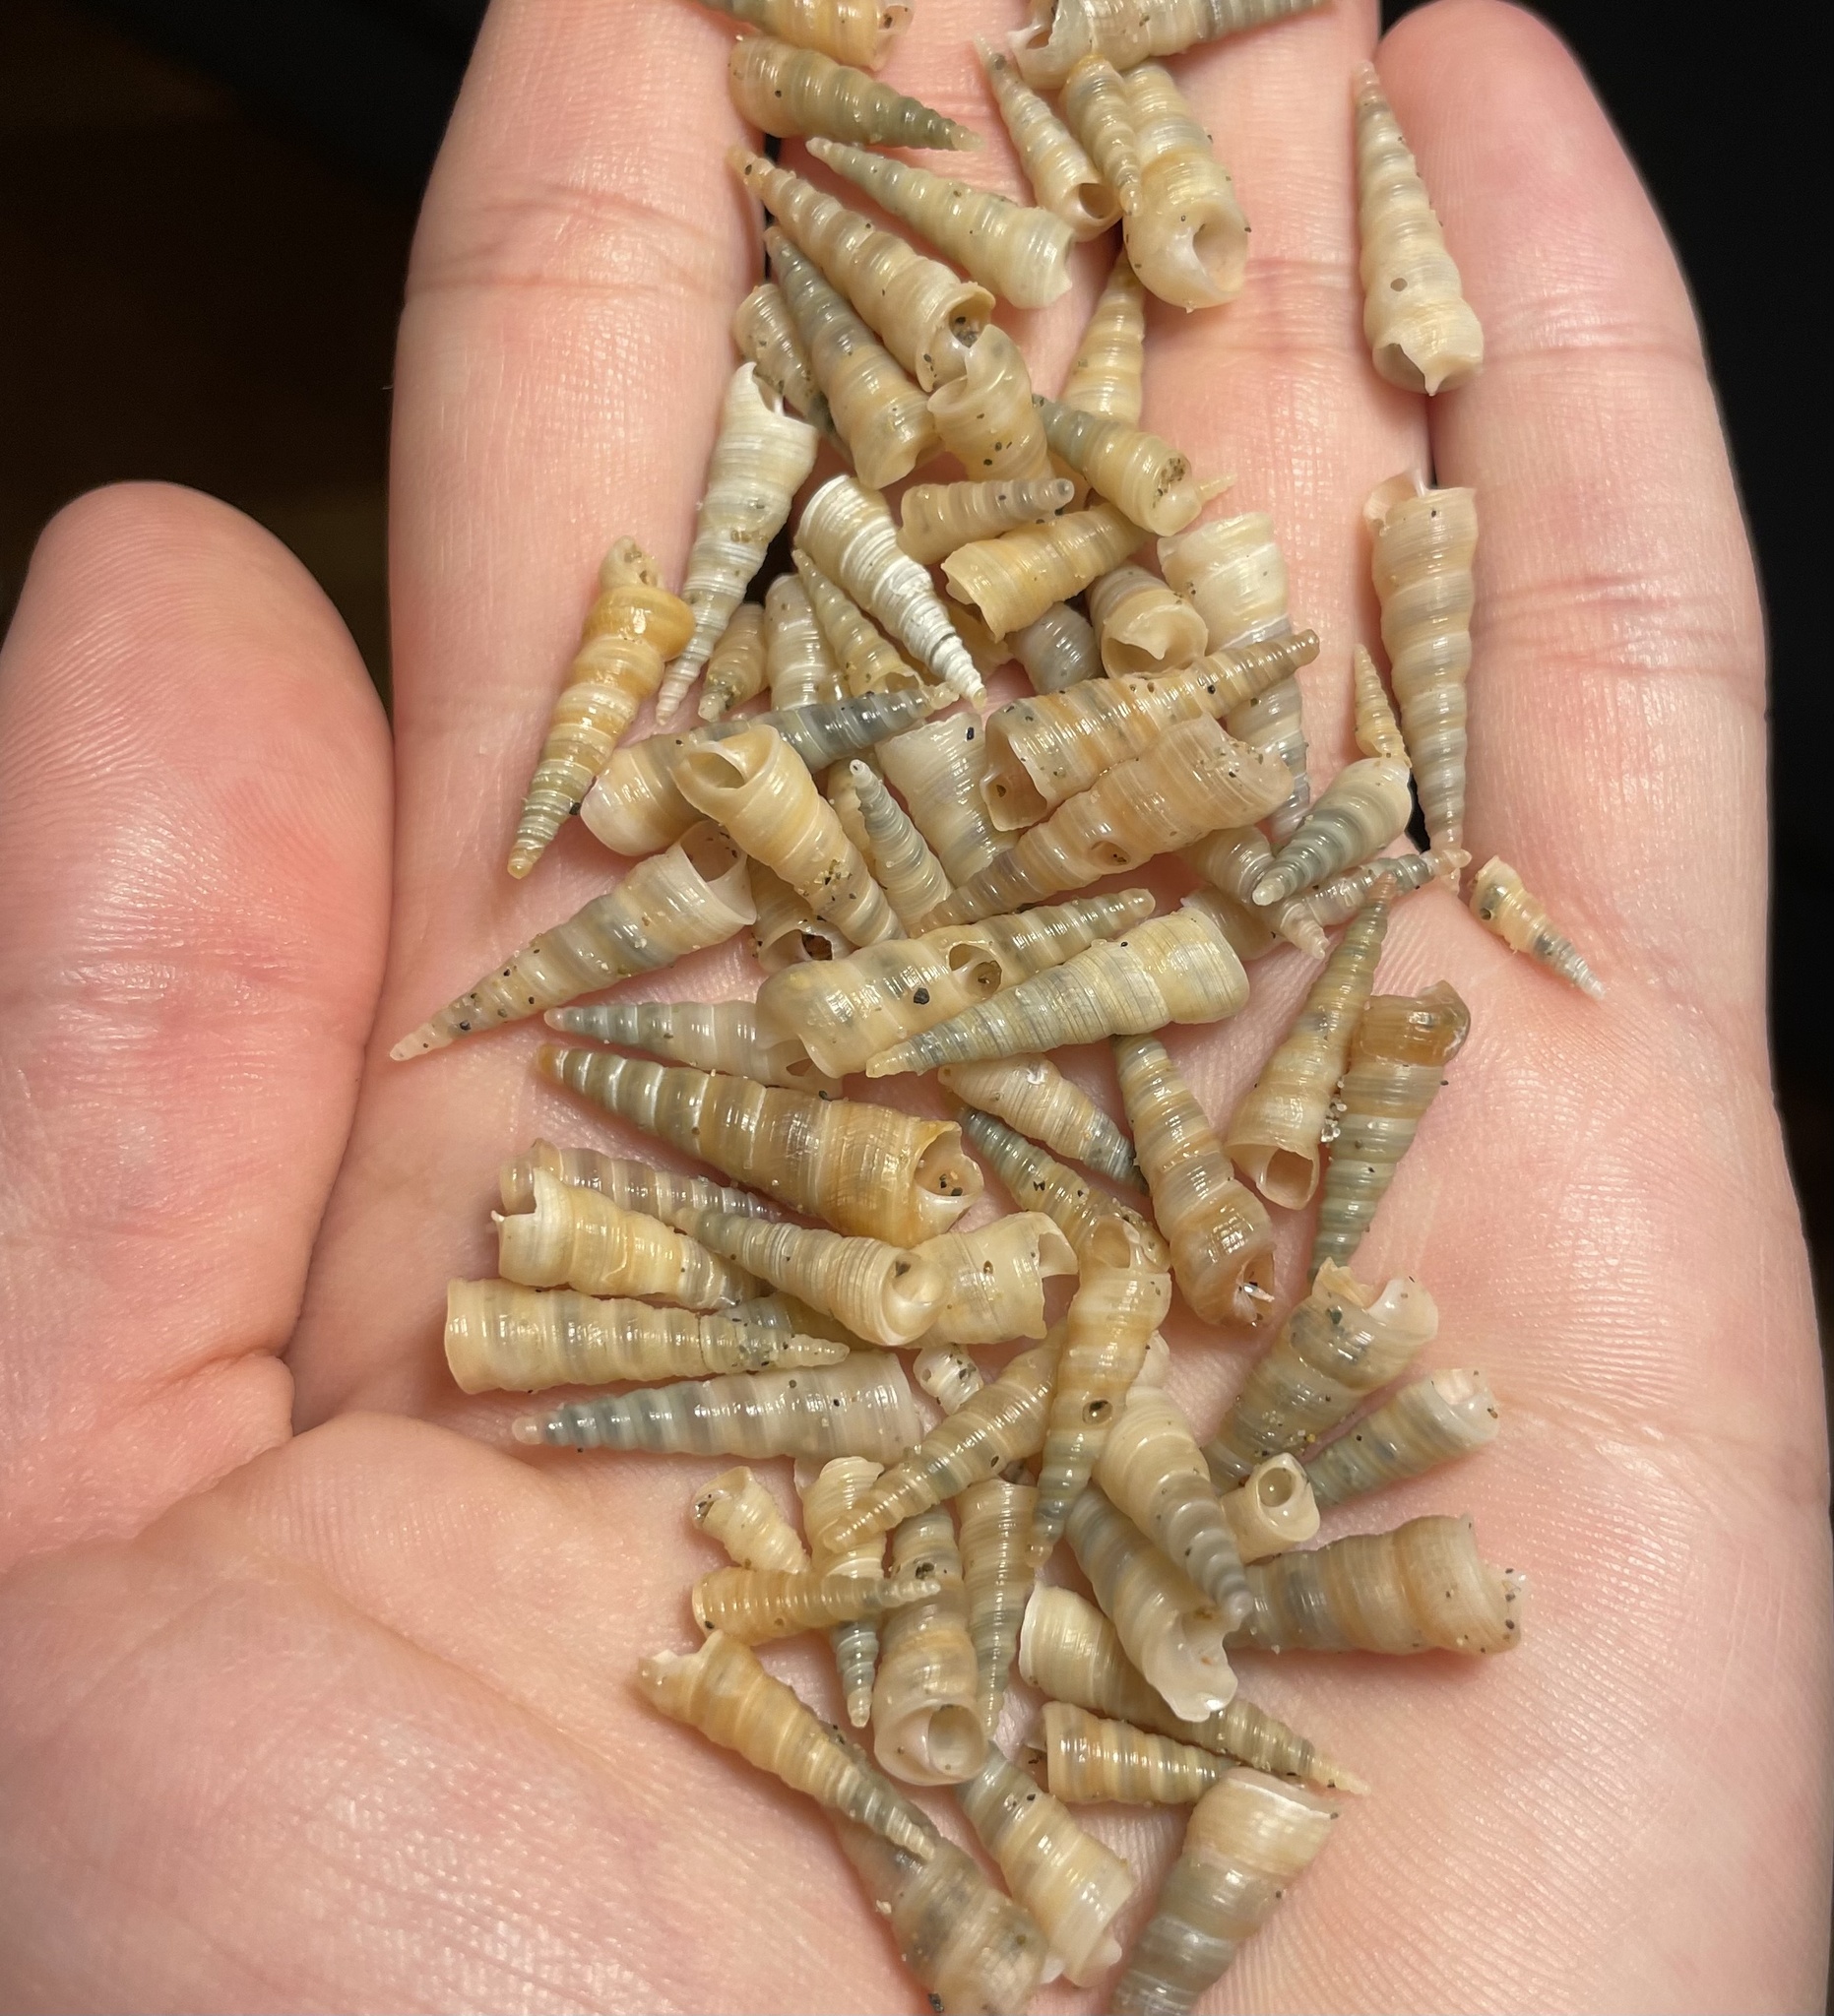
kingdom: Animalia
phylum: Mollusca
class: Gastropoda
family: Turritellidae
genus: Turritellinella
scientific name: Turritellinella tricarinata
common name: Auger shell
